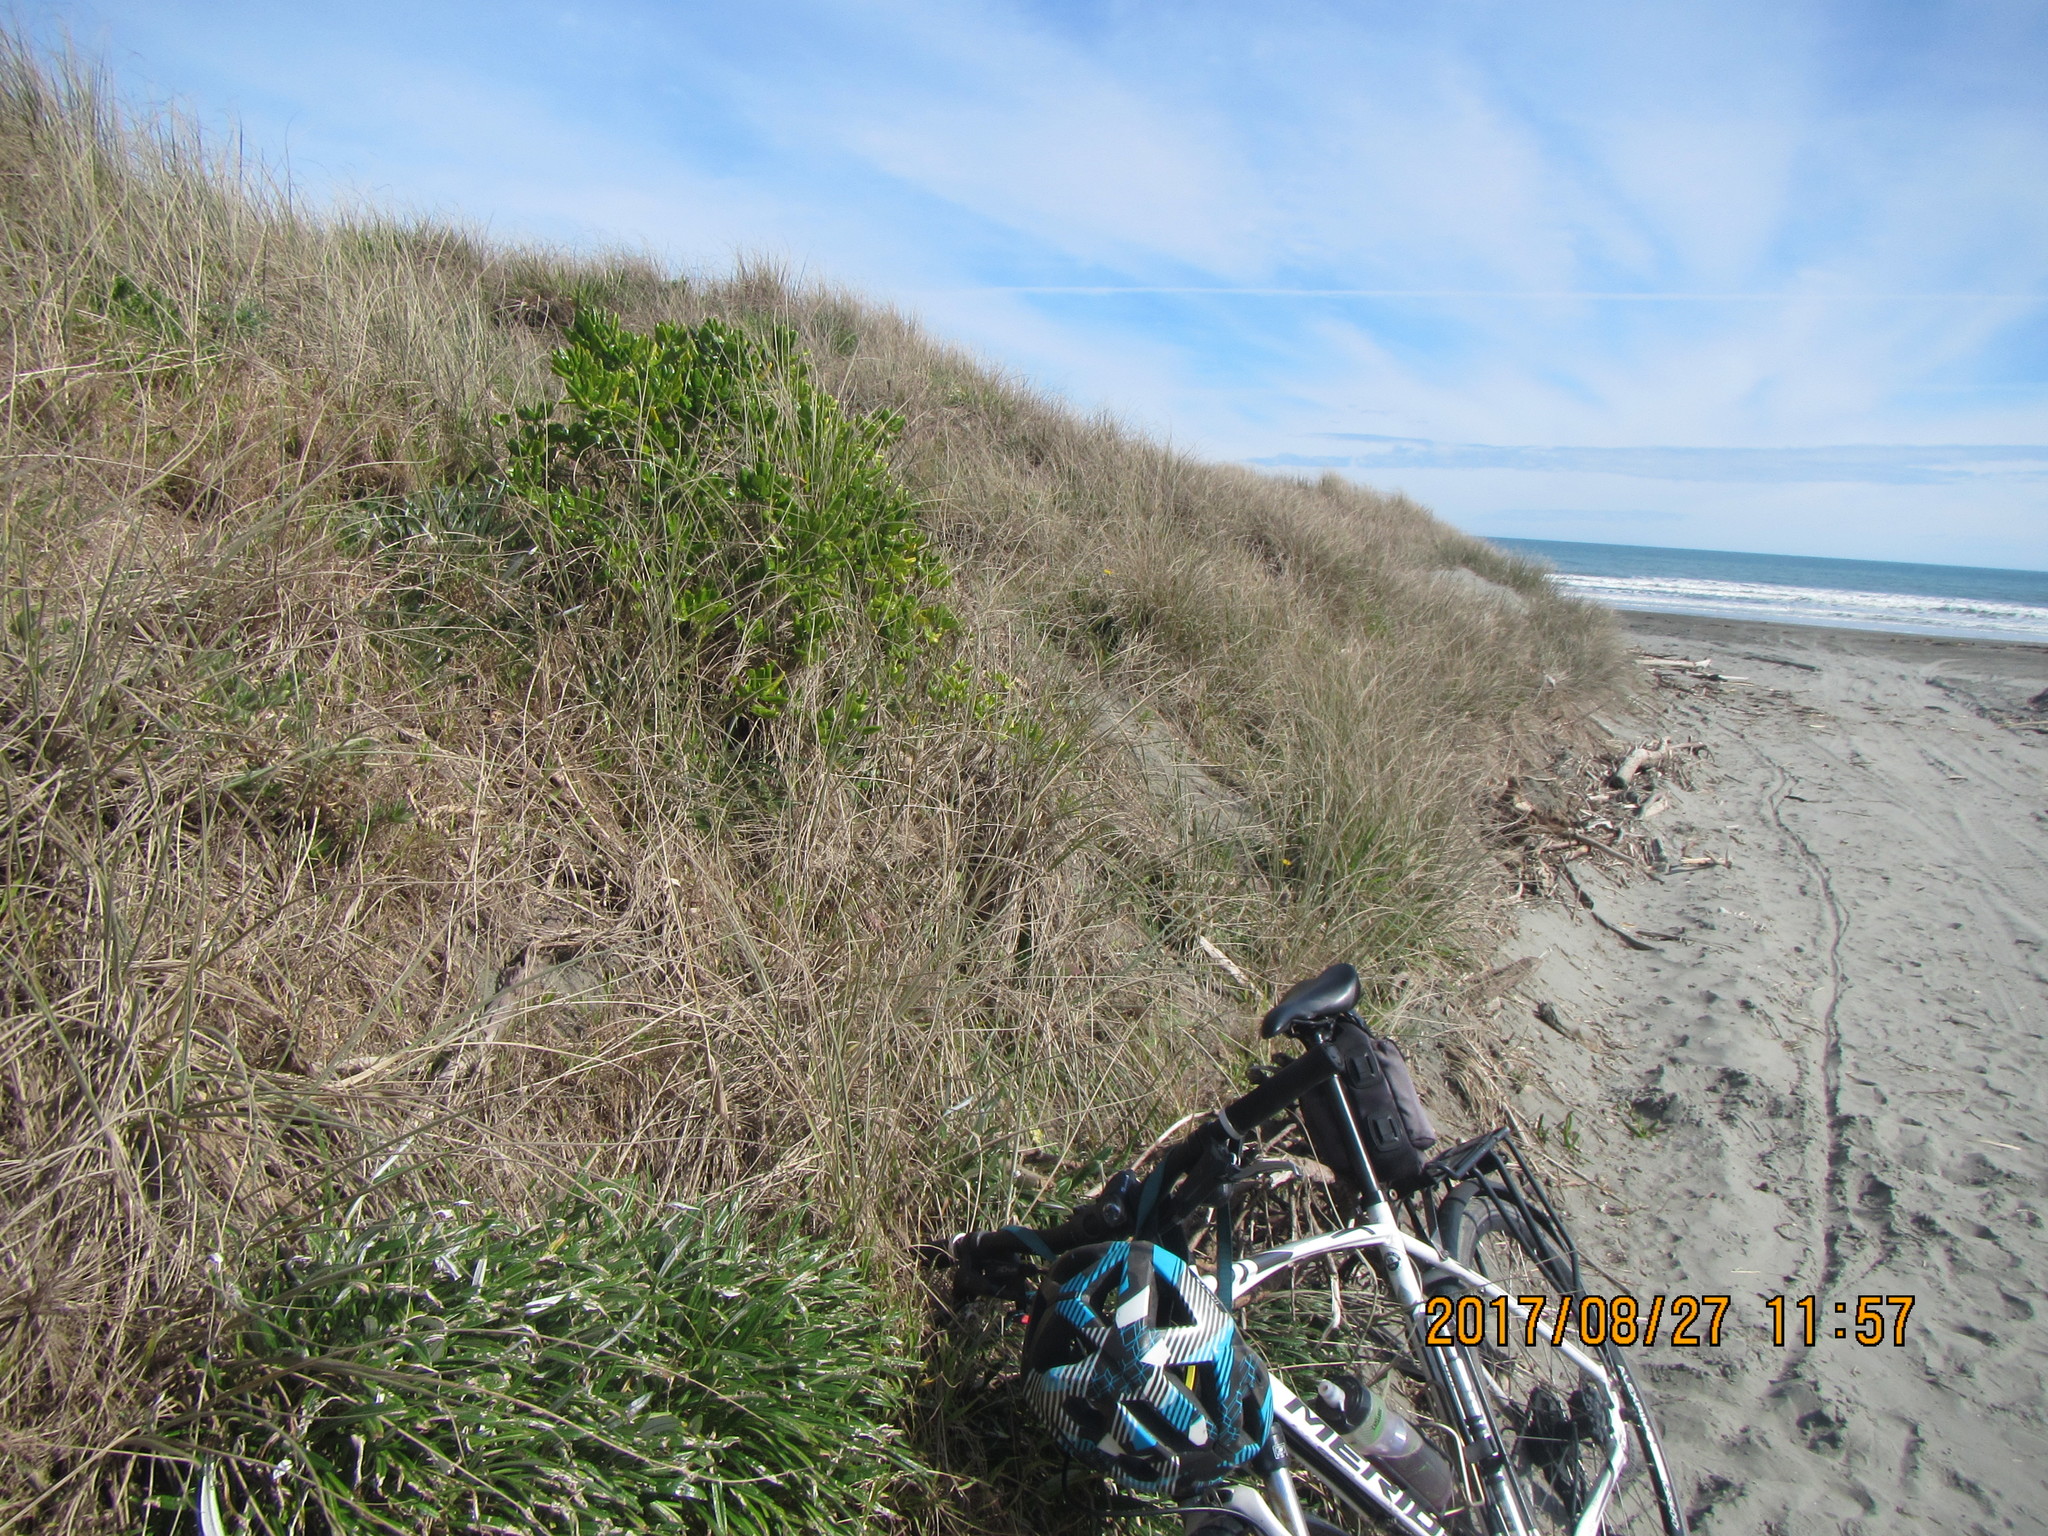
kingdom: Plantae
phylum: Tracheophyta
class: Magnoliopsida
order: Gentianales
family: Rubiaceae
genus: Coprosma
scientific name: Coprosma repens
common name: Tree bedstraw
